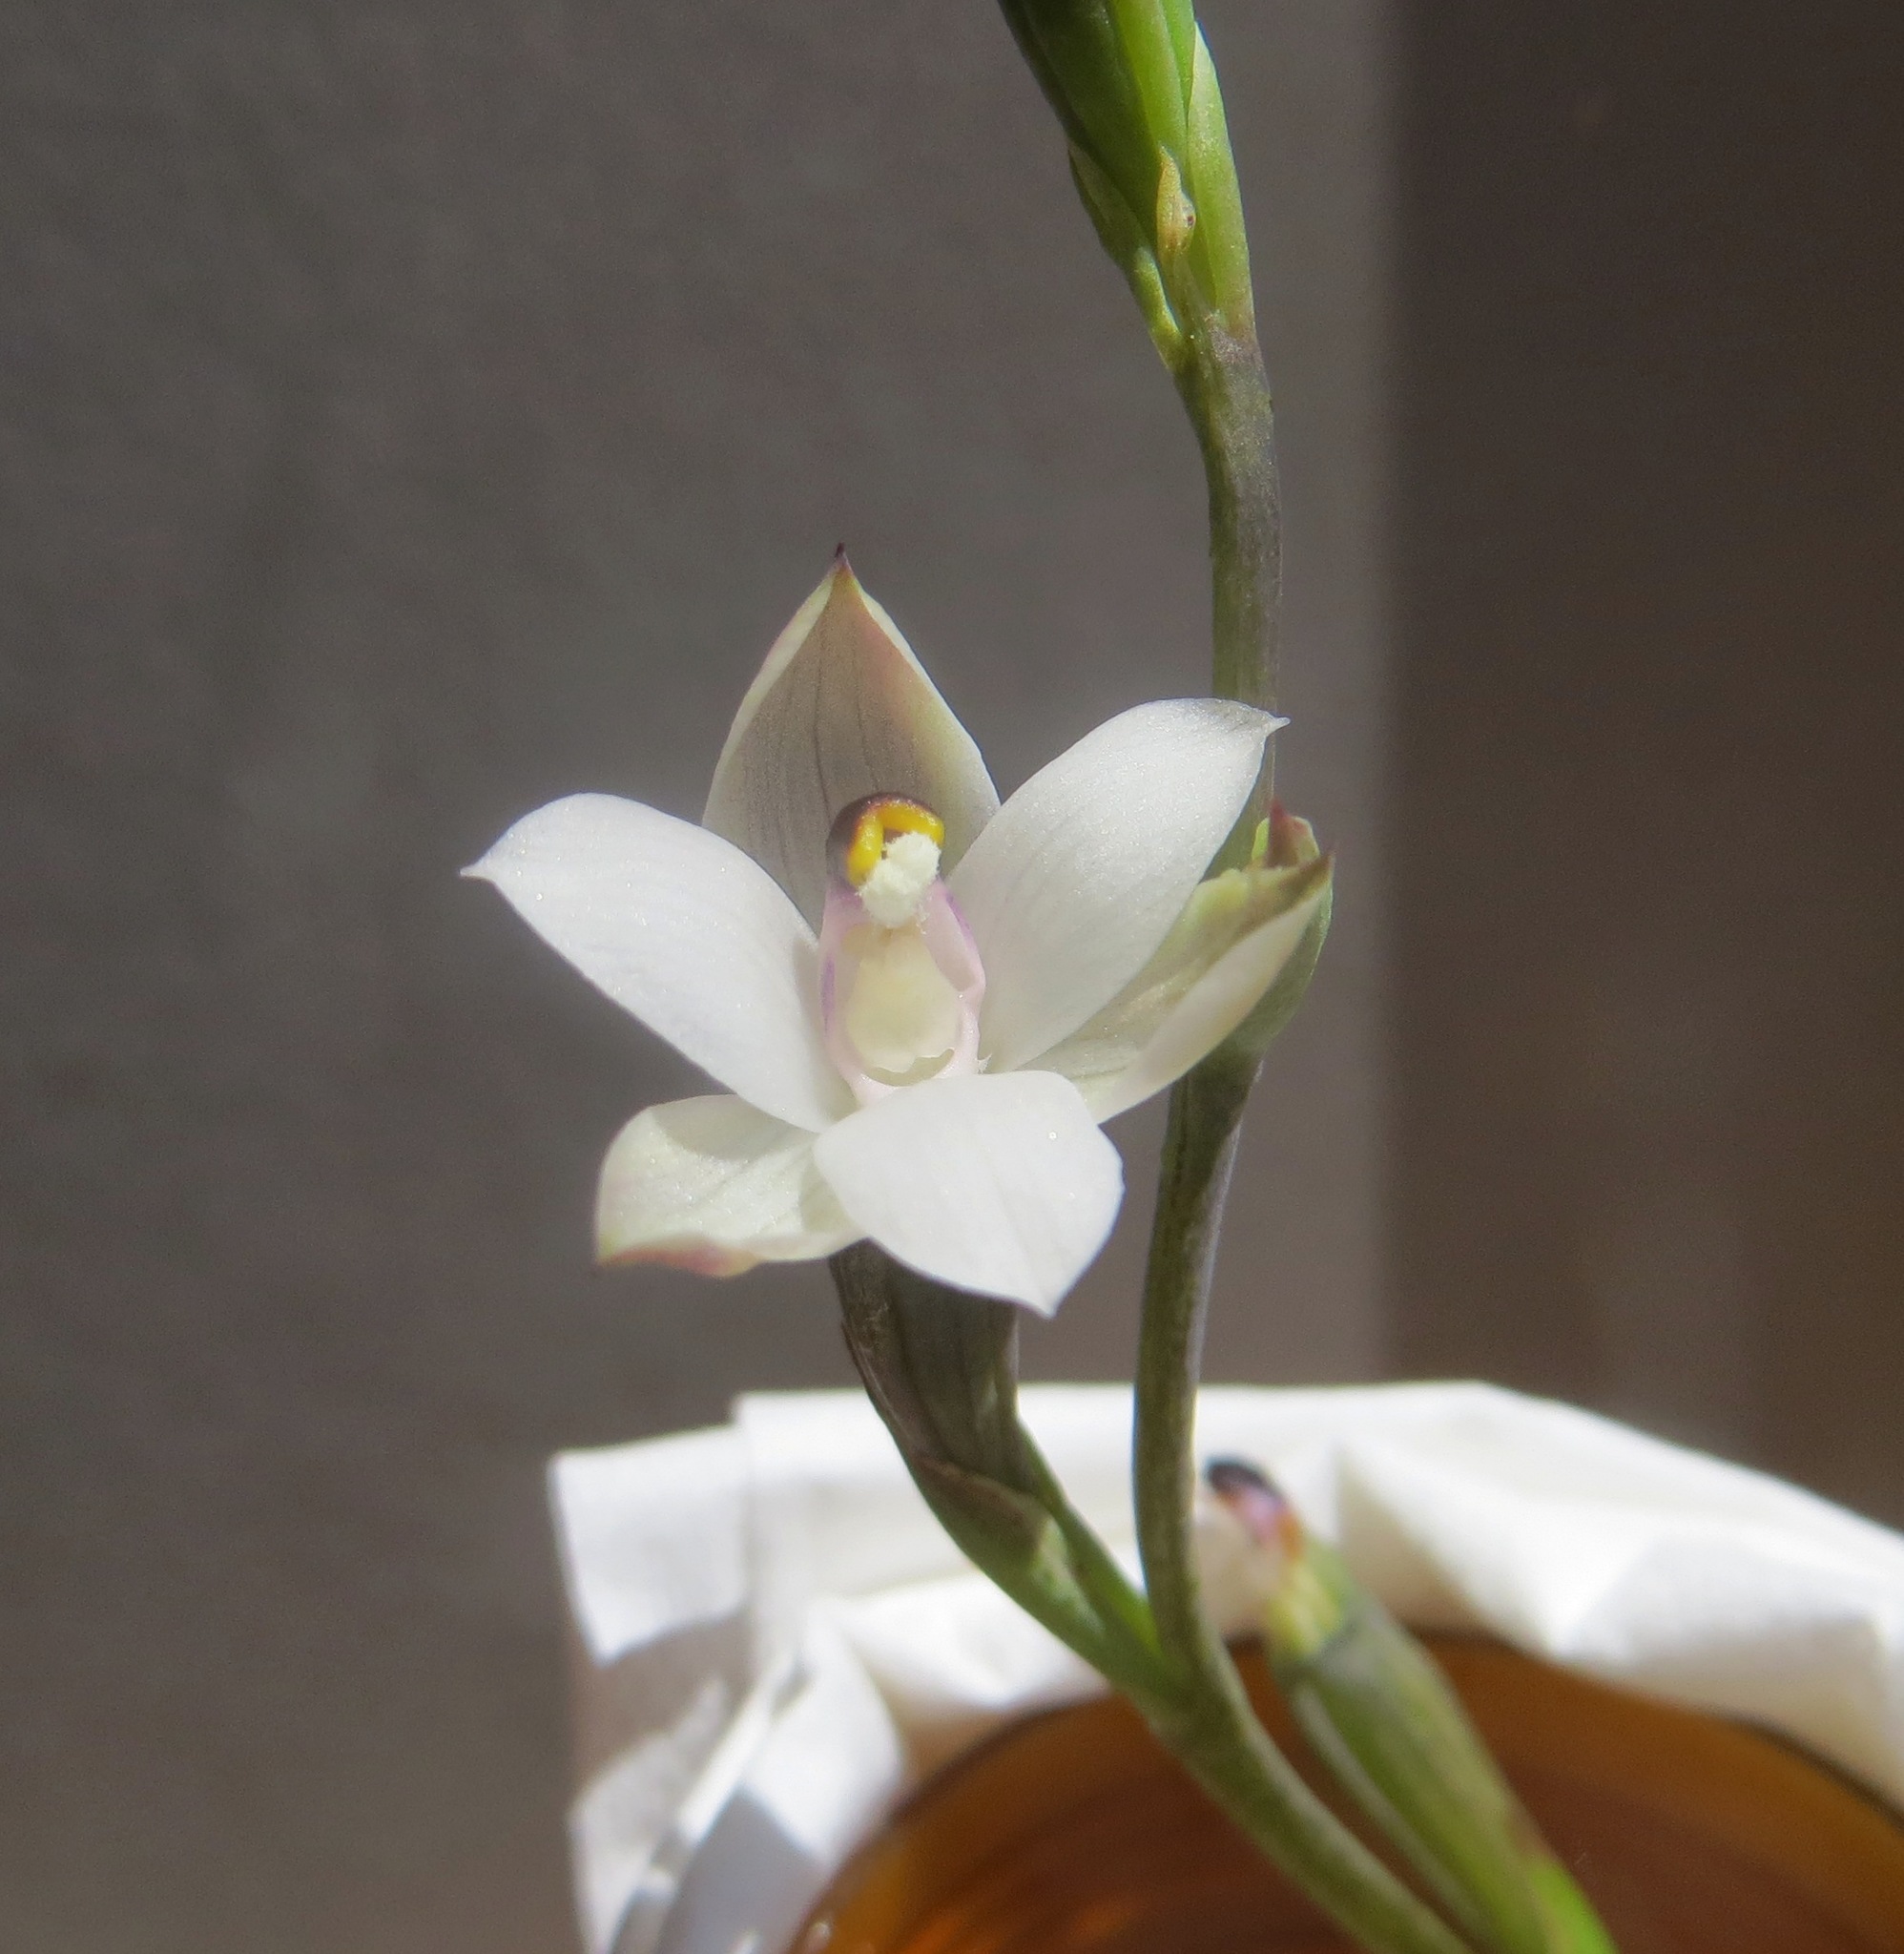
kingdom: Plantae
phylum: Tracheophyta
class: Liliopsida
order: Asparagales
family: Orchidaceae
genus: Thelymitra
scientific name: Thelymitra longifolia
